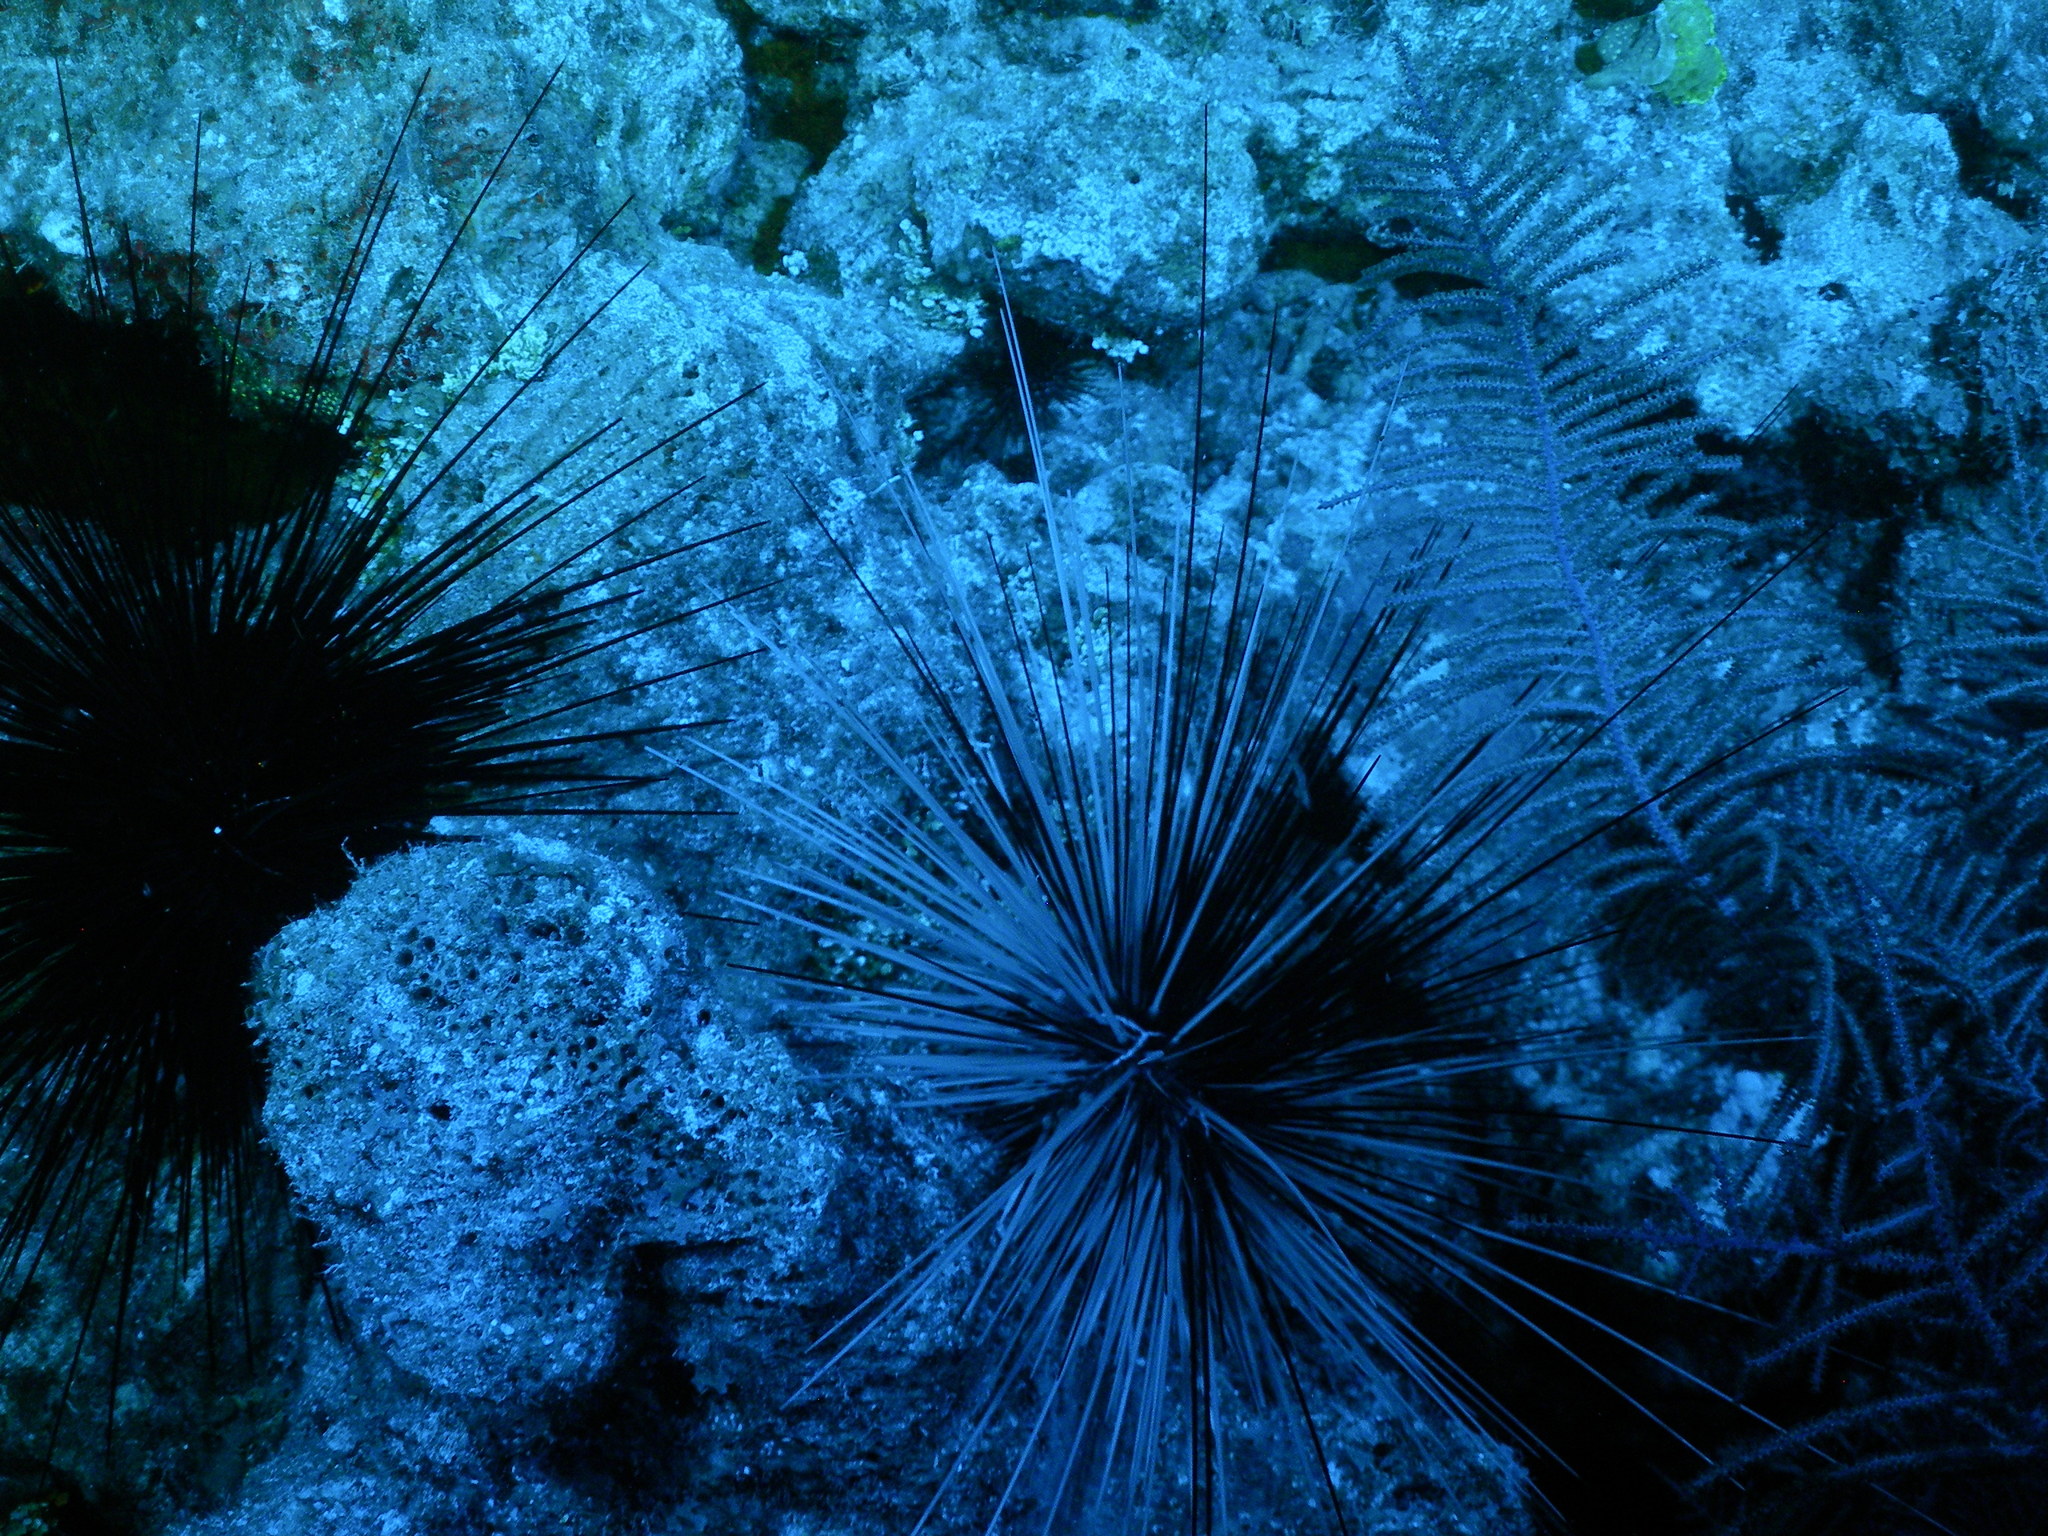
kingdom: Animalia
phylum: Echinodermata
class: Echinoidea
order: Diadematoida
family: Diadematidae
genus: Diadema
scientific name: Diadema antillarum
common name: Spiny urchin
